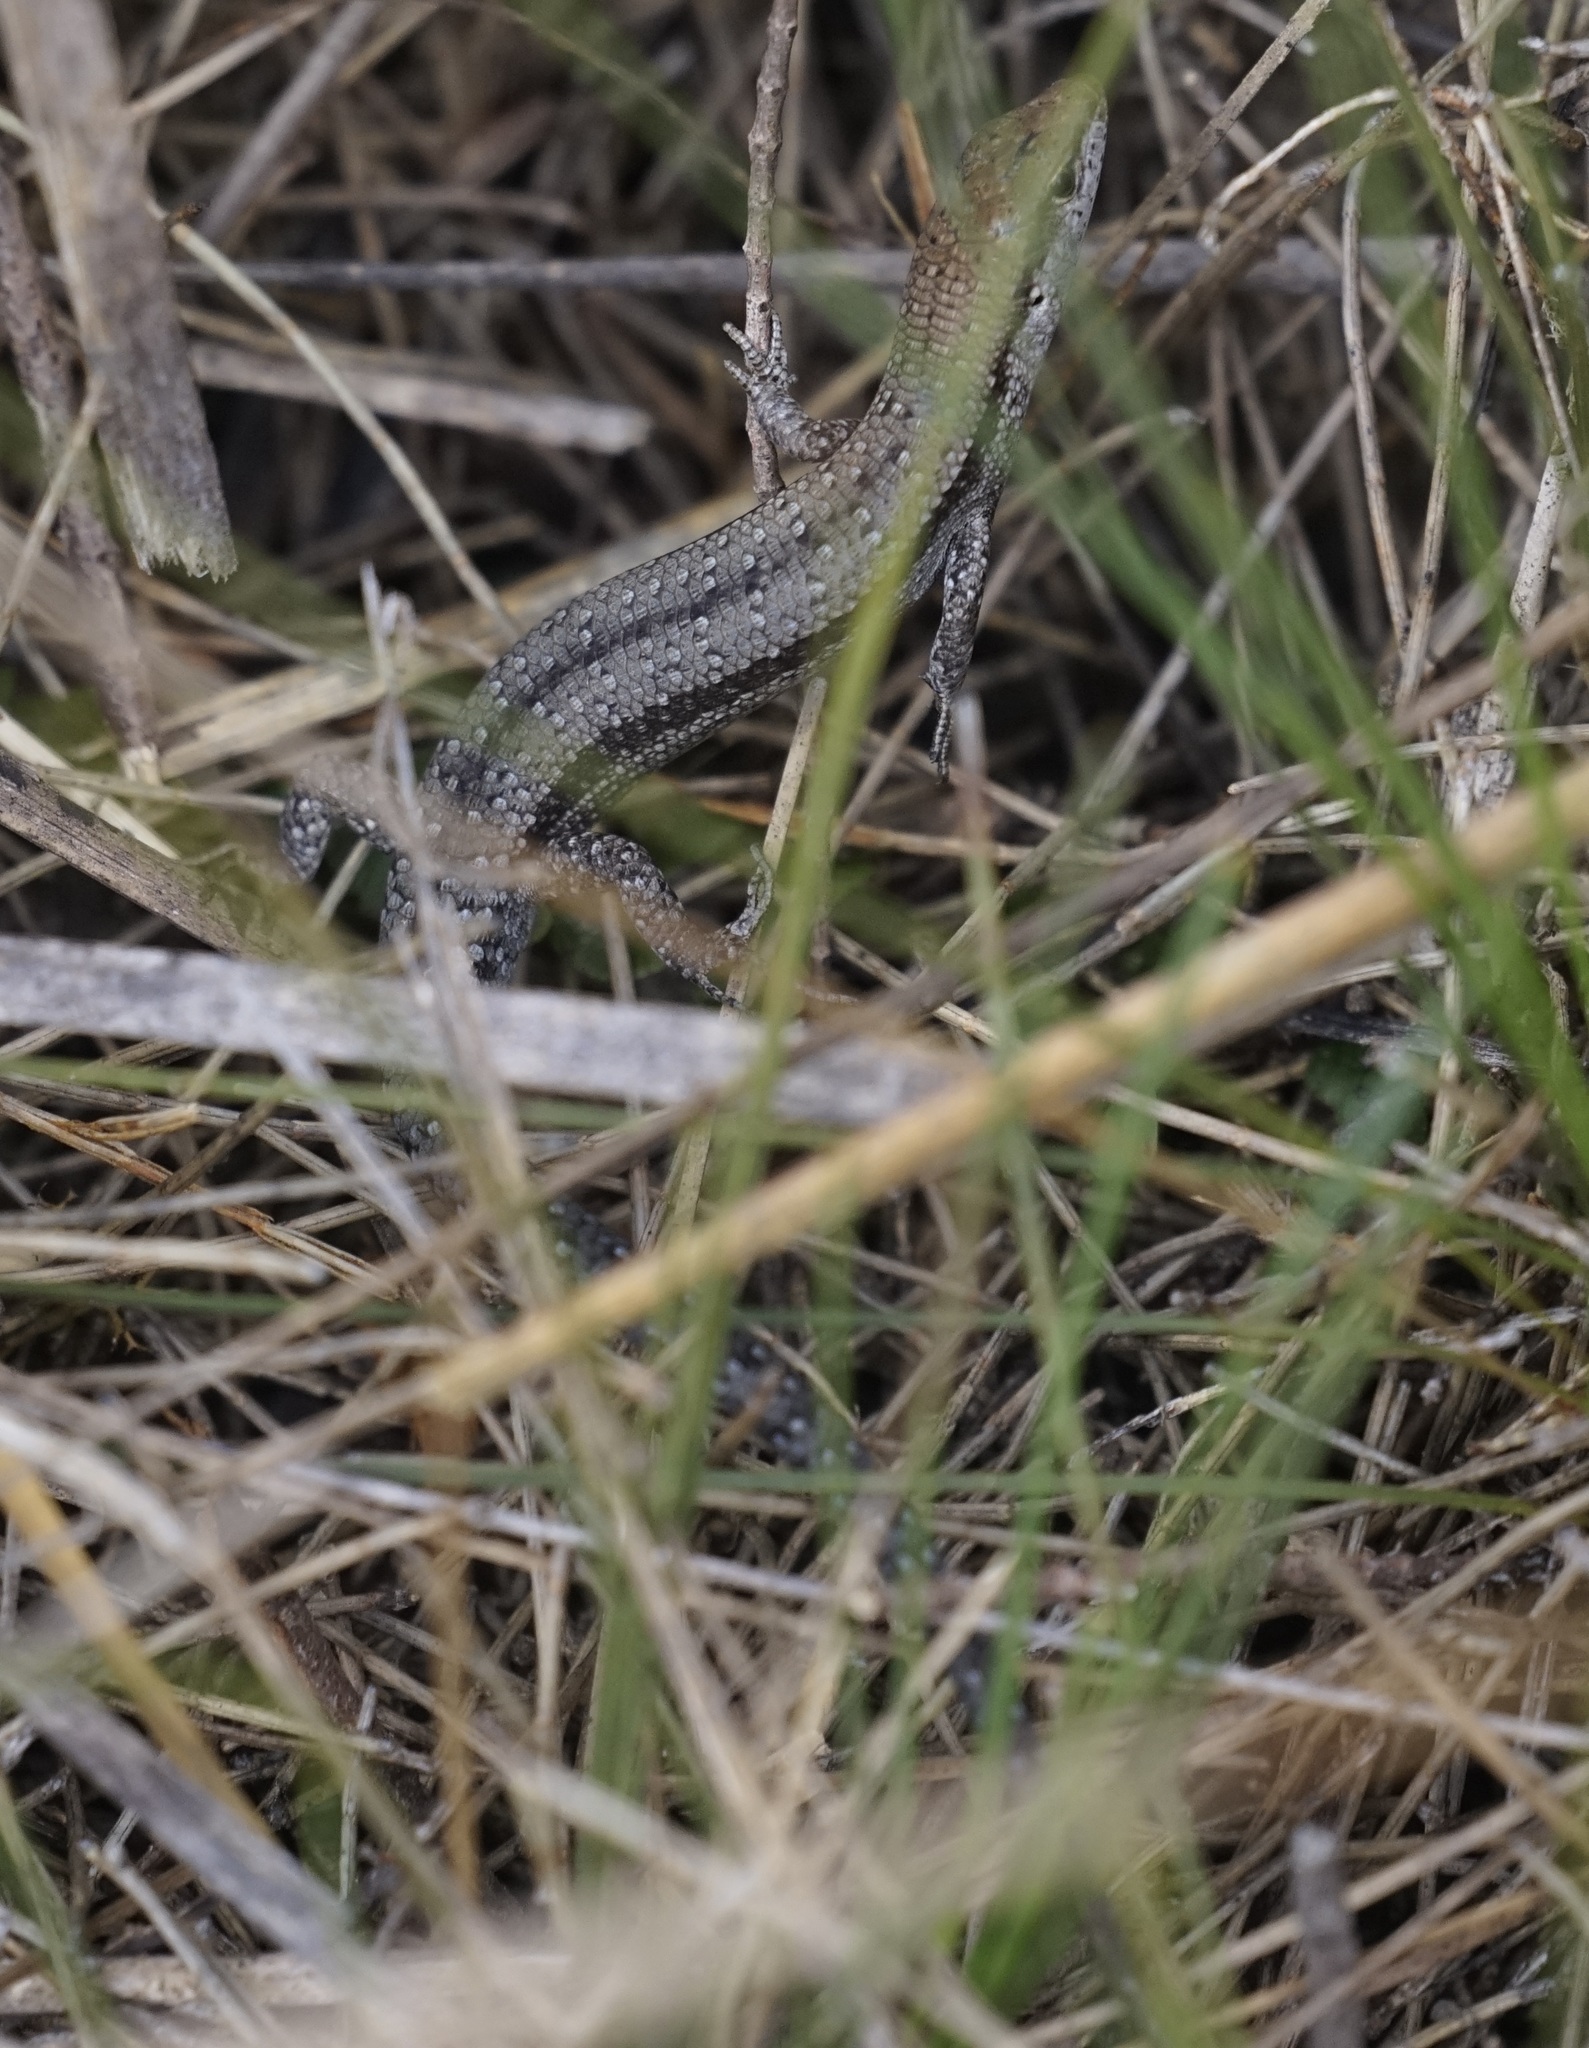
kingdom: Animalia
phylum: Chordata
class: Squamata
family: Scincidae
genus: Lampropholis
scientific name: Lampropholis guichenoti
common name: Garden skink
